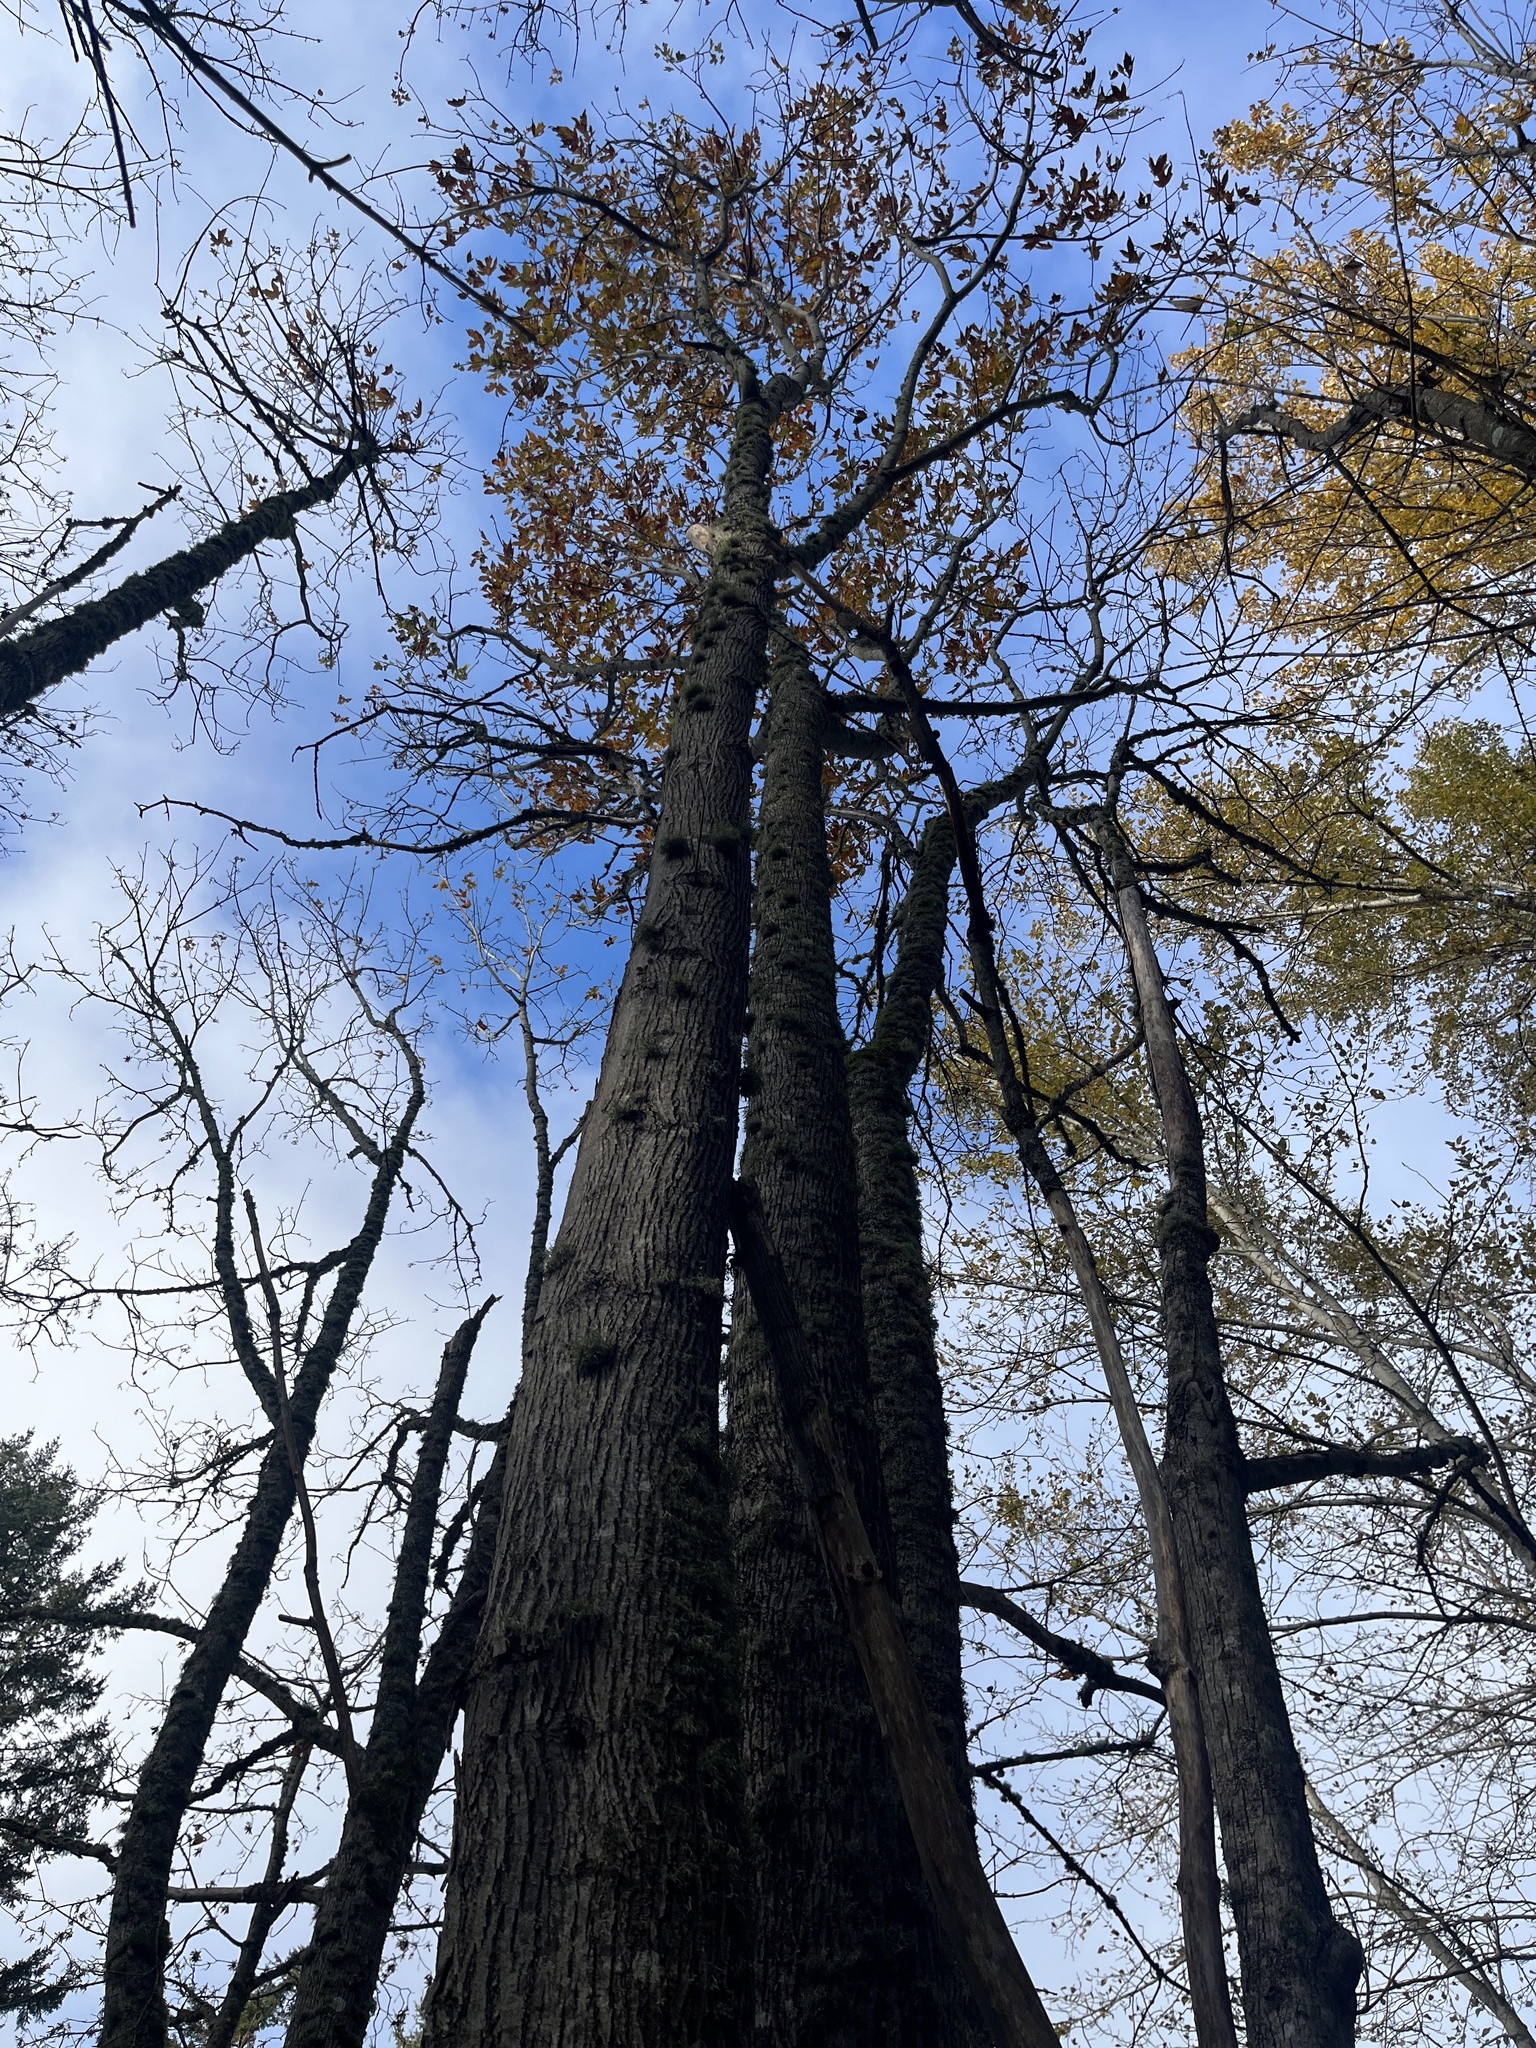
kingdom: Plantae
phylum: Tracheophyta
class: Magnoliopsida
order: Sapindales
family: Sapindaceae
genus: Acer
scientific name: Acer macrophyllum
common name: Oregon maple
